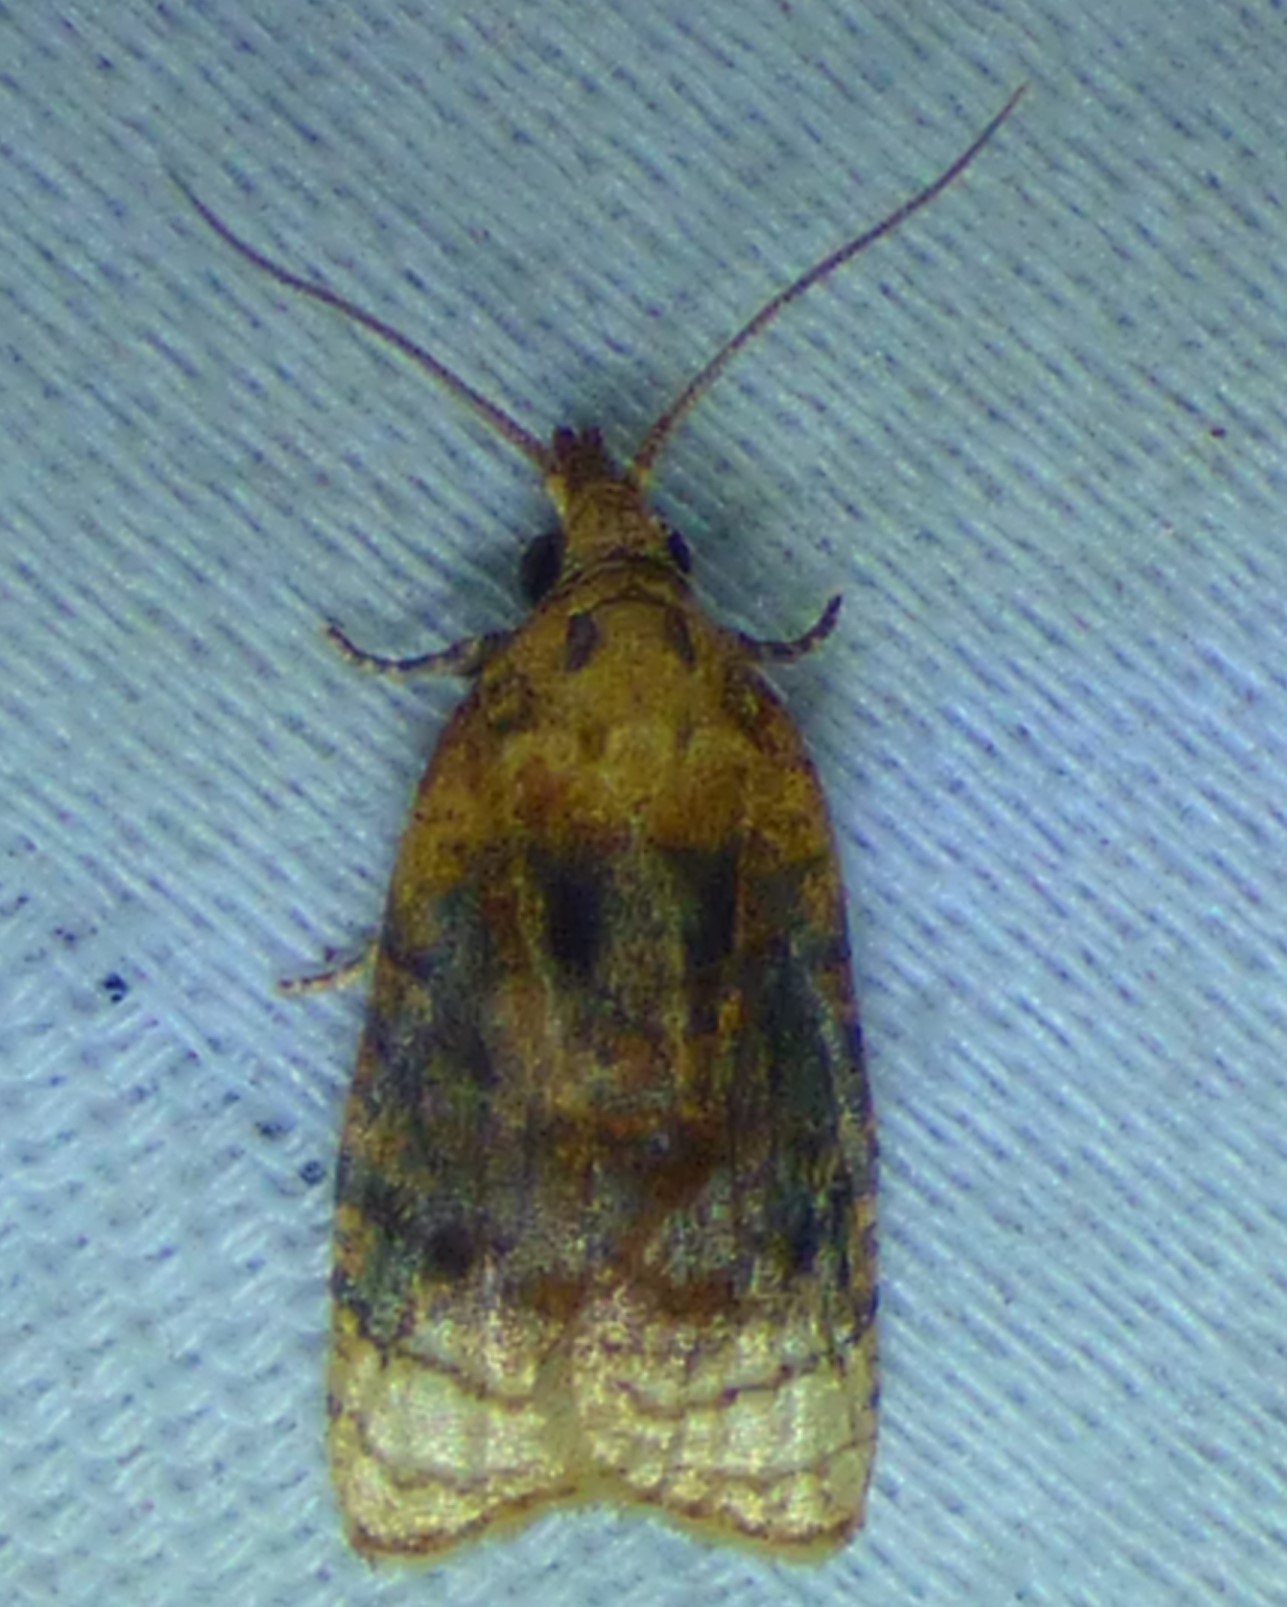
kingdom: Animalia
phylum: Arthropoda
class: Insecta
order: Lepidoptera
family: Tortricidae
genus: Platynota
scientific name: Platynota flavedana
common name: Black-shaded platynota moth
